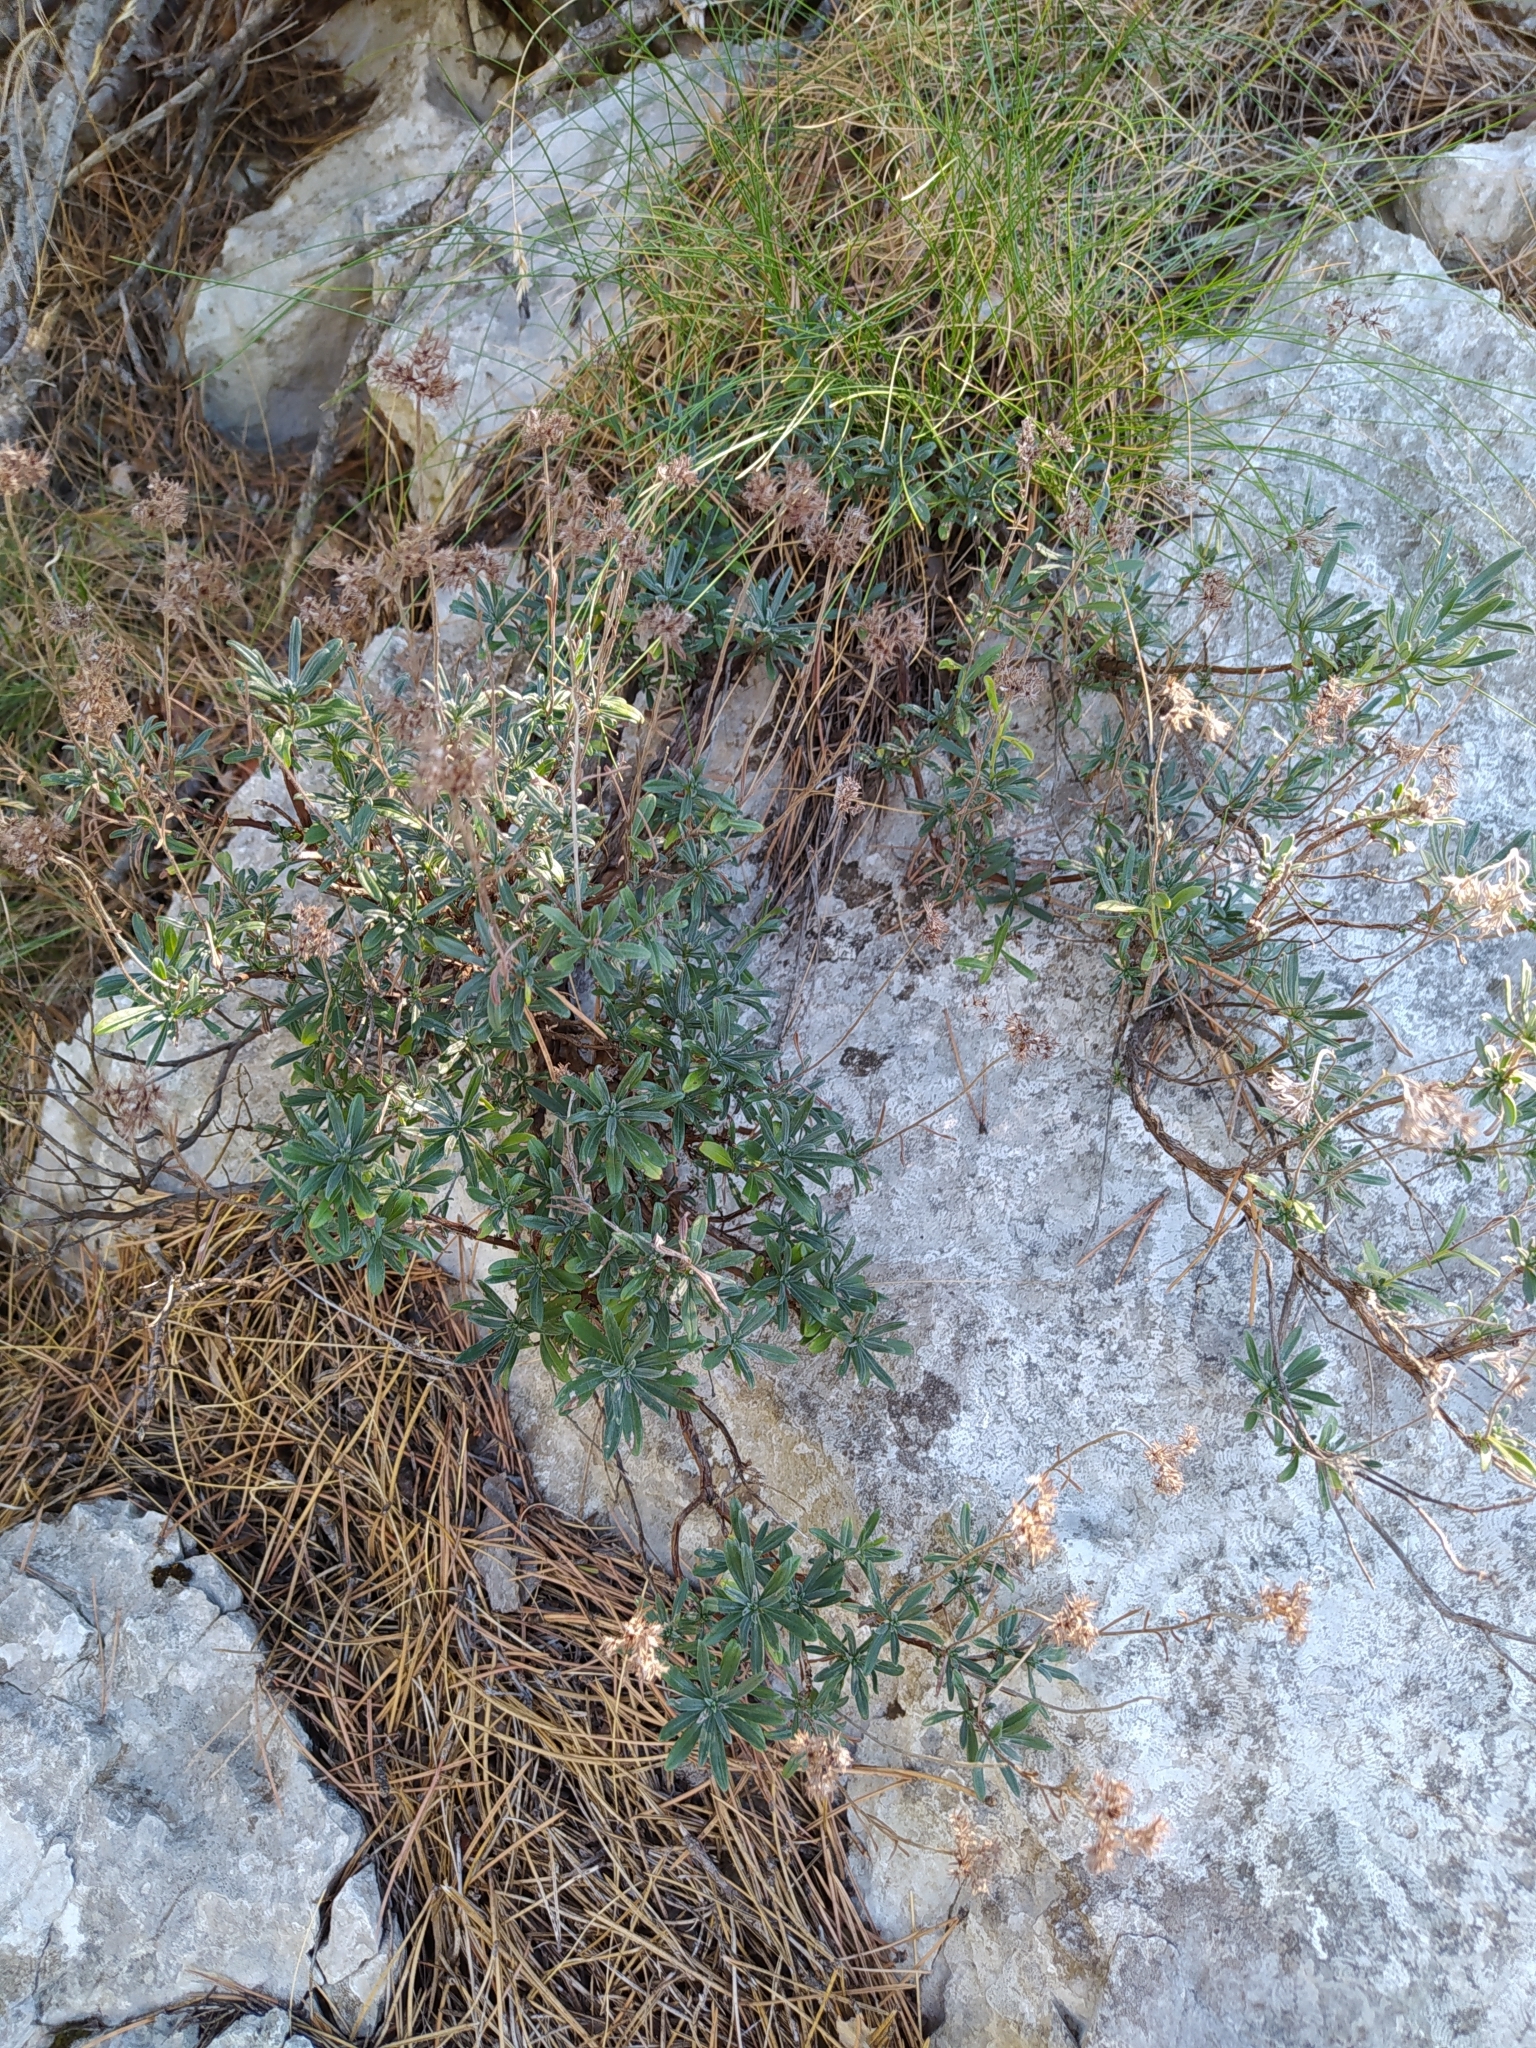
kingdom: Plantae
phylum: Tracheophyta
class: Magnoliopsida
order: Boraginales
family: Boraginaceae
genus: Moltkia
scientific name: Moltkia petraea
